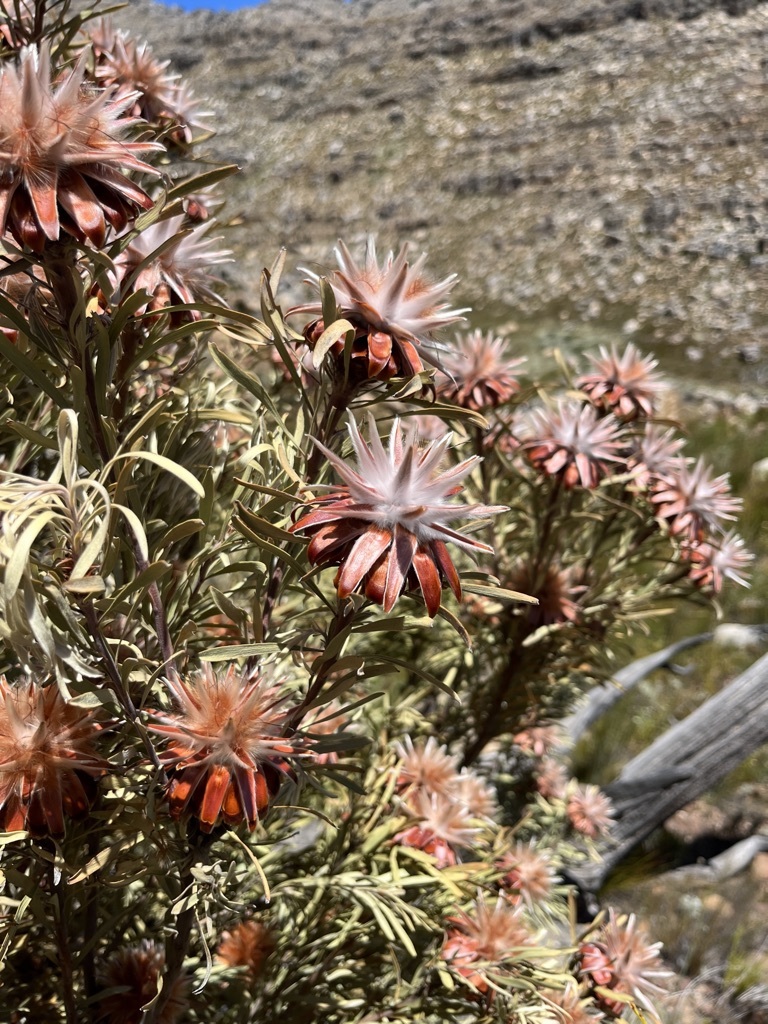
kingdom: Plantae
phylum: Tracheophyta
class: Magnoliopsida
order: Proteales
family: Proteaceae
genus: Leucadendron
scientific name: Leucadendron rubrum
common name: Spinning top
